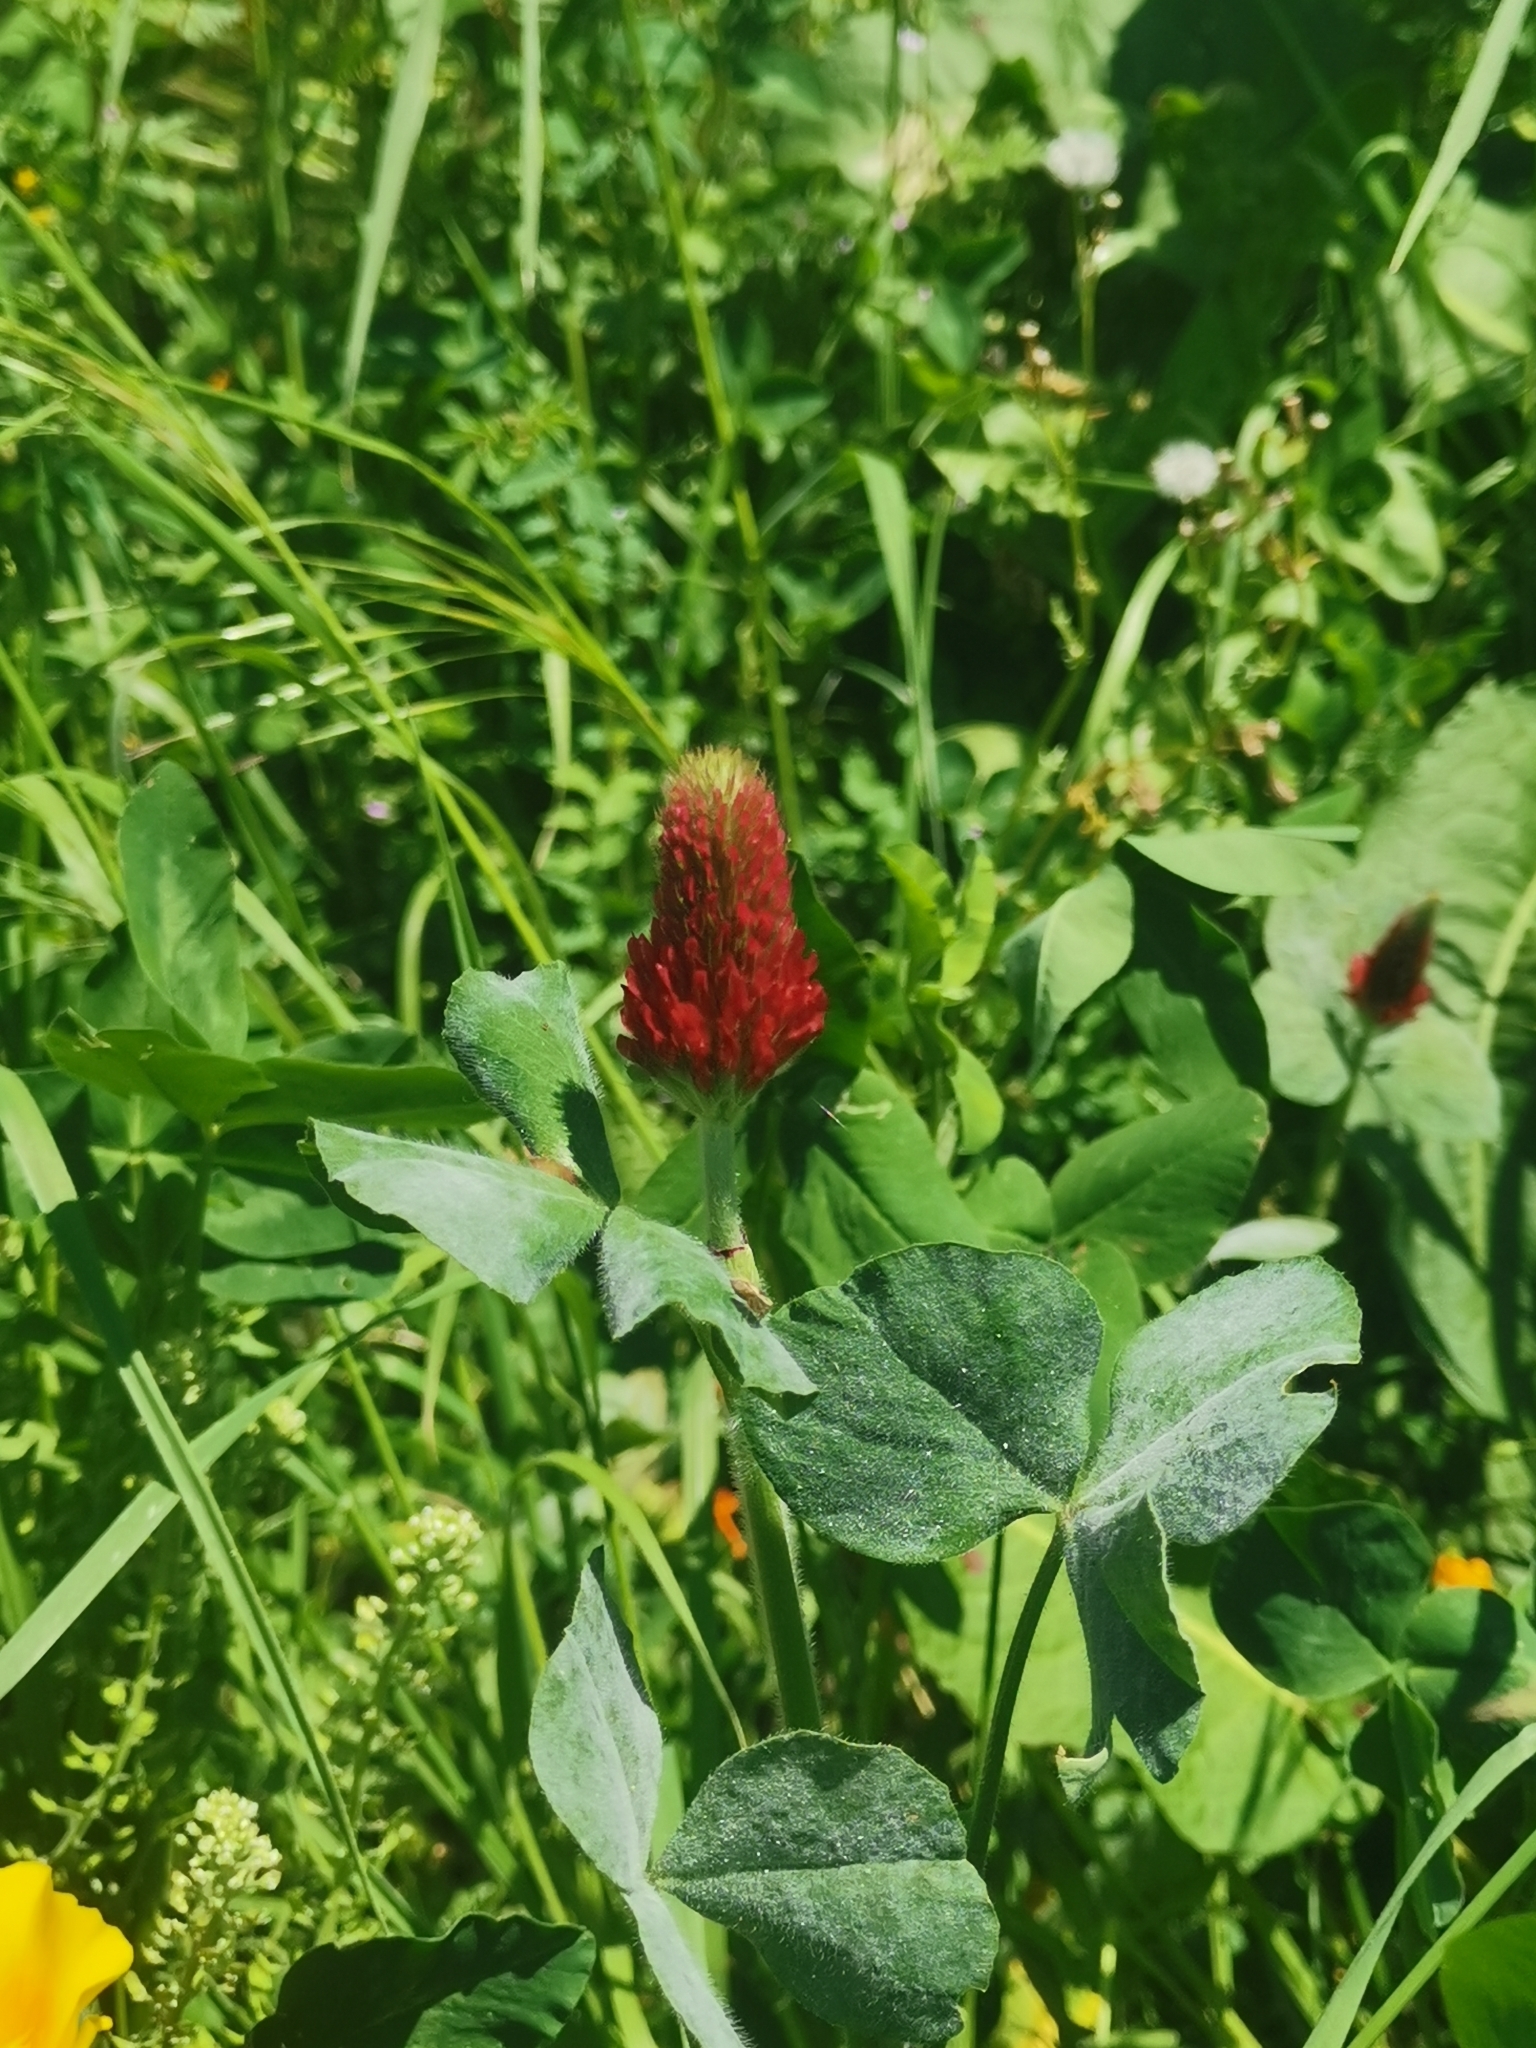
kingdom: Plantae
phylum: Tracheophyta
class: Magnoliopsida
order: Fabales
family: Fabaceae
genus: Trifolium
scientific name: Trifolium incarnatum
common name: Crimson clover
